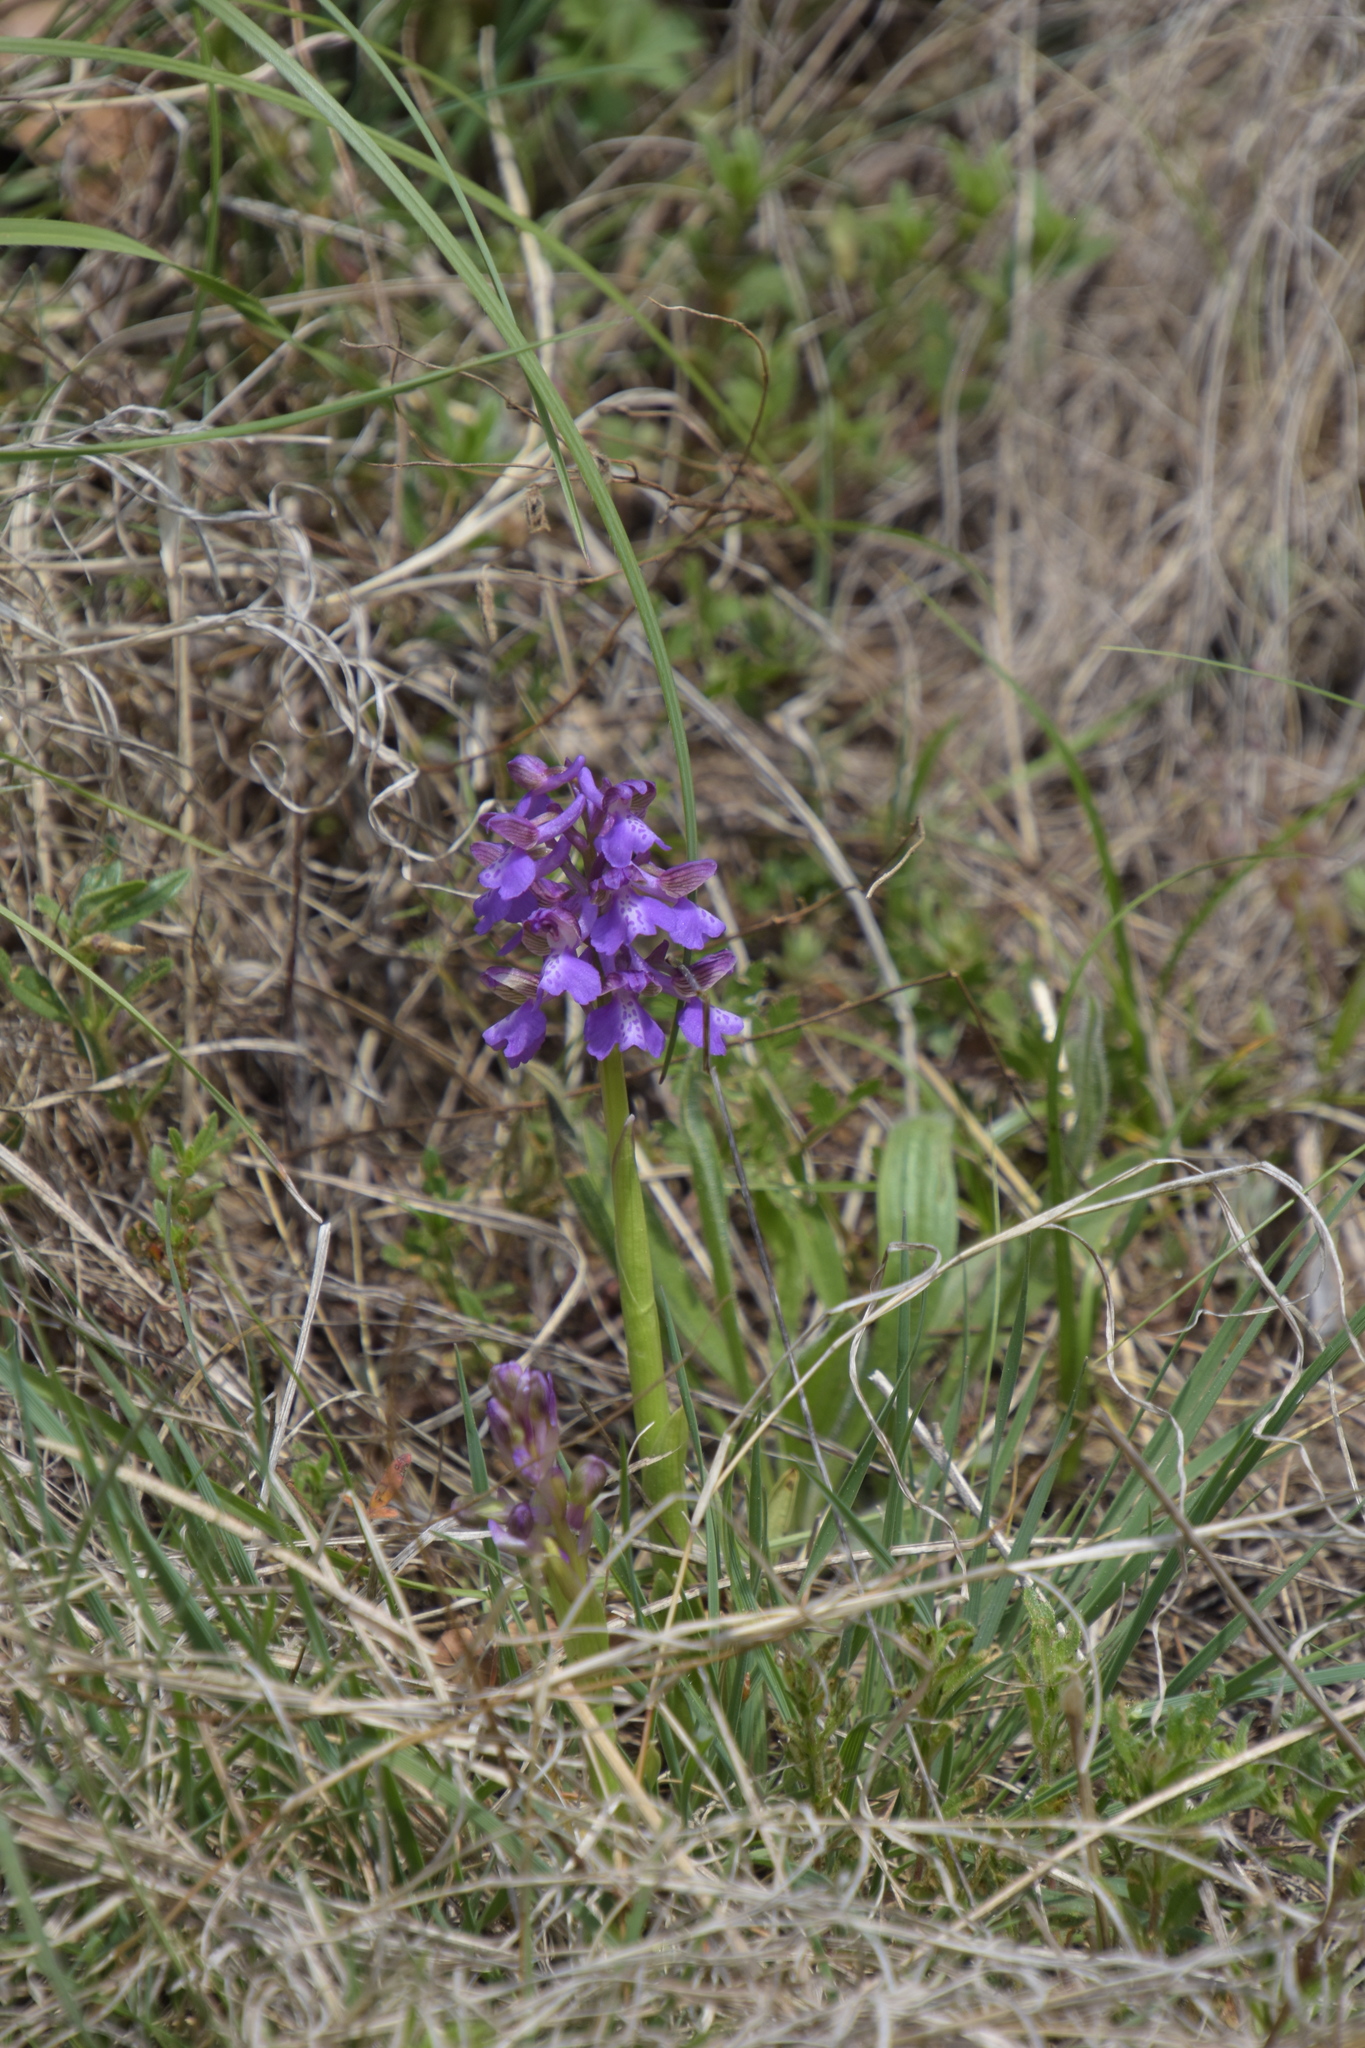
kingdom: Plantae
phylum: Tracheophyta
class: Liliopsida
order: Asparagales
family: Orchidaceae
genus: Anacamptis
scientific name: Anacamptis morio
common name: Green-winged orchid
